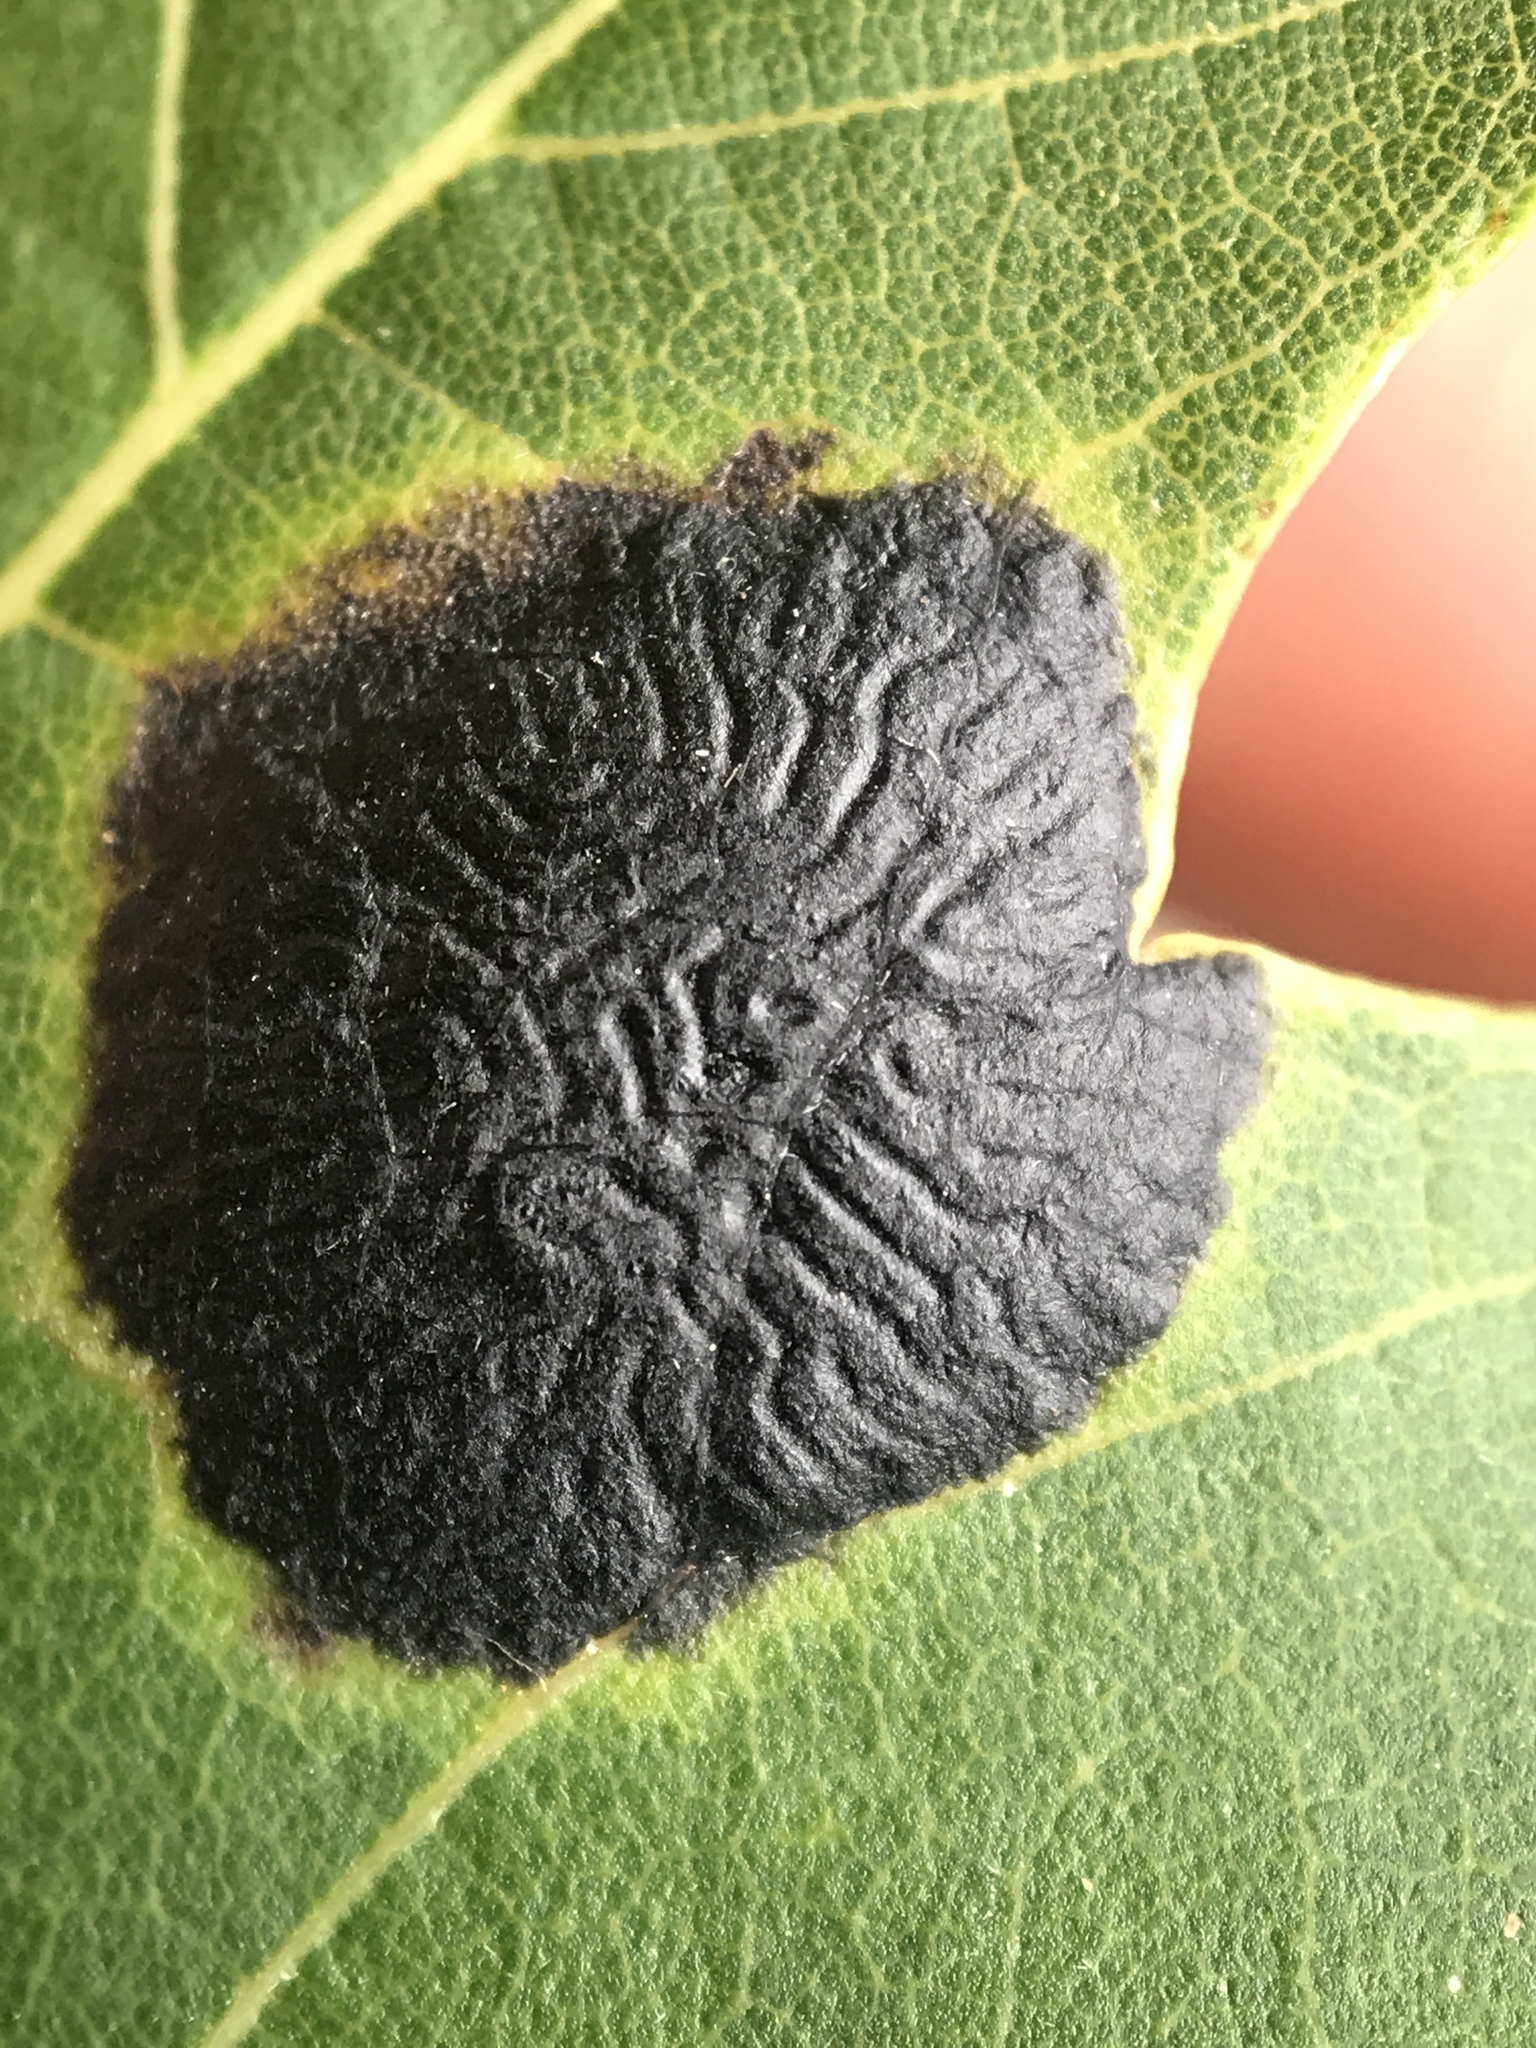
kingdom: Fungi
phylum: Ascomycota
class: Leotiomycetes
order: Rhytismatales
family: Rhytismataceae
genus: Rhytisma
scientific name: Rhytisma americanum
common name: American tar spot
